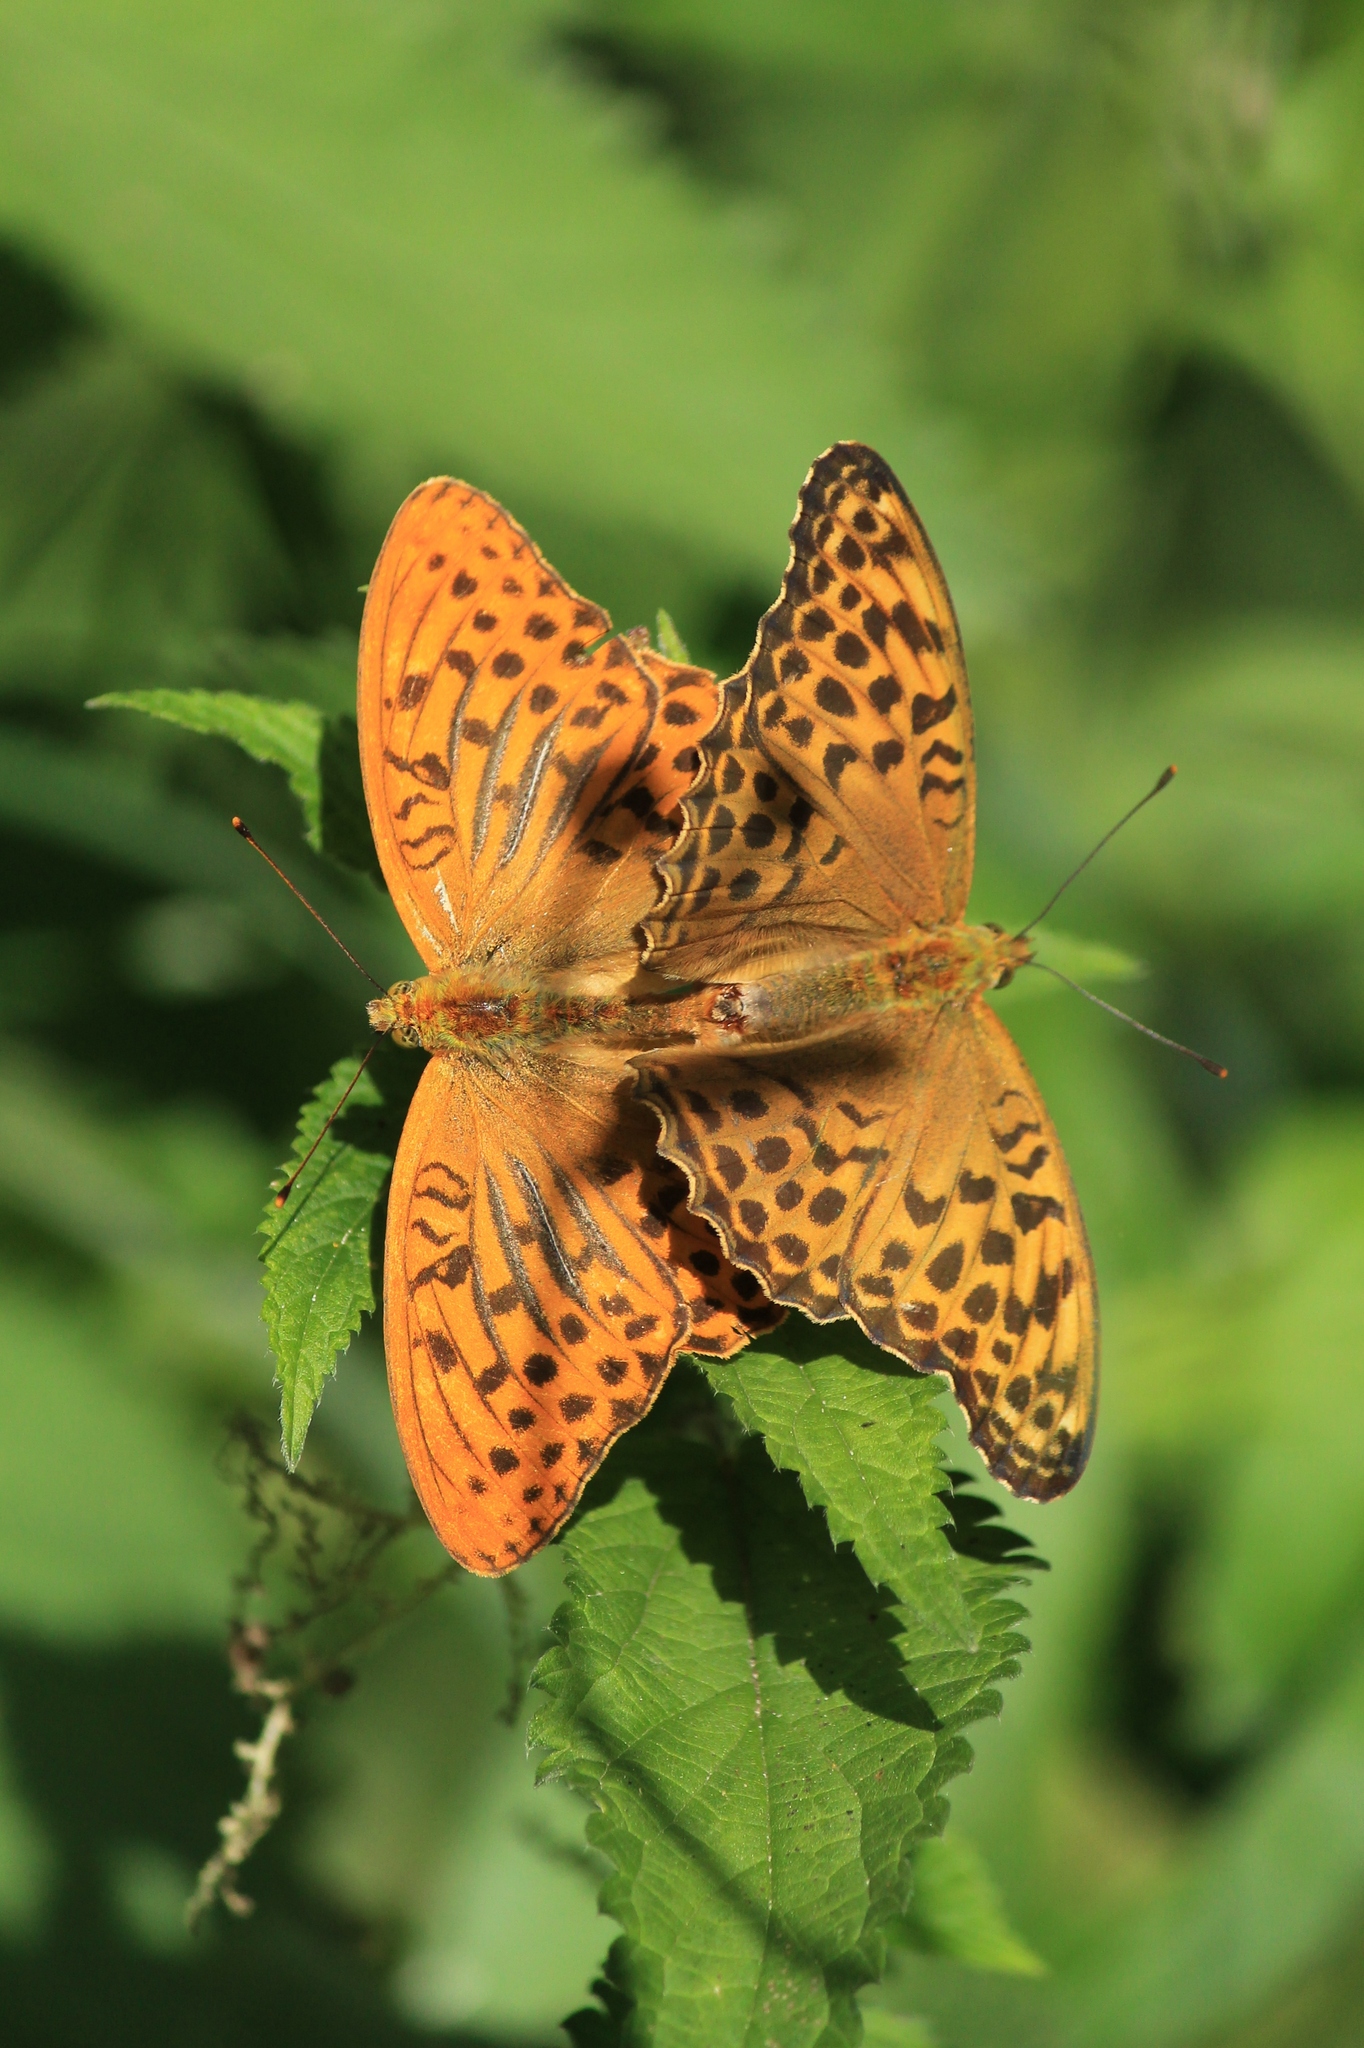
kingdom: Animalia
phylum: Arthropoda
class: Insecta
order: Lepidoptera
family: Nymphalidae
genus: Argynnis
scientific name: Argynnis paphia
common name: Silver-washed fritillary
